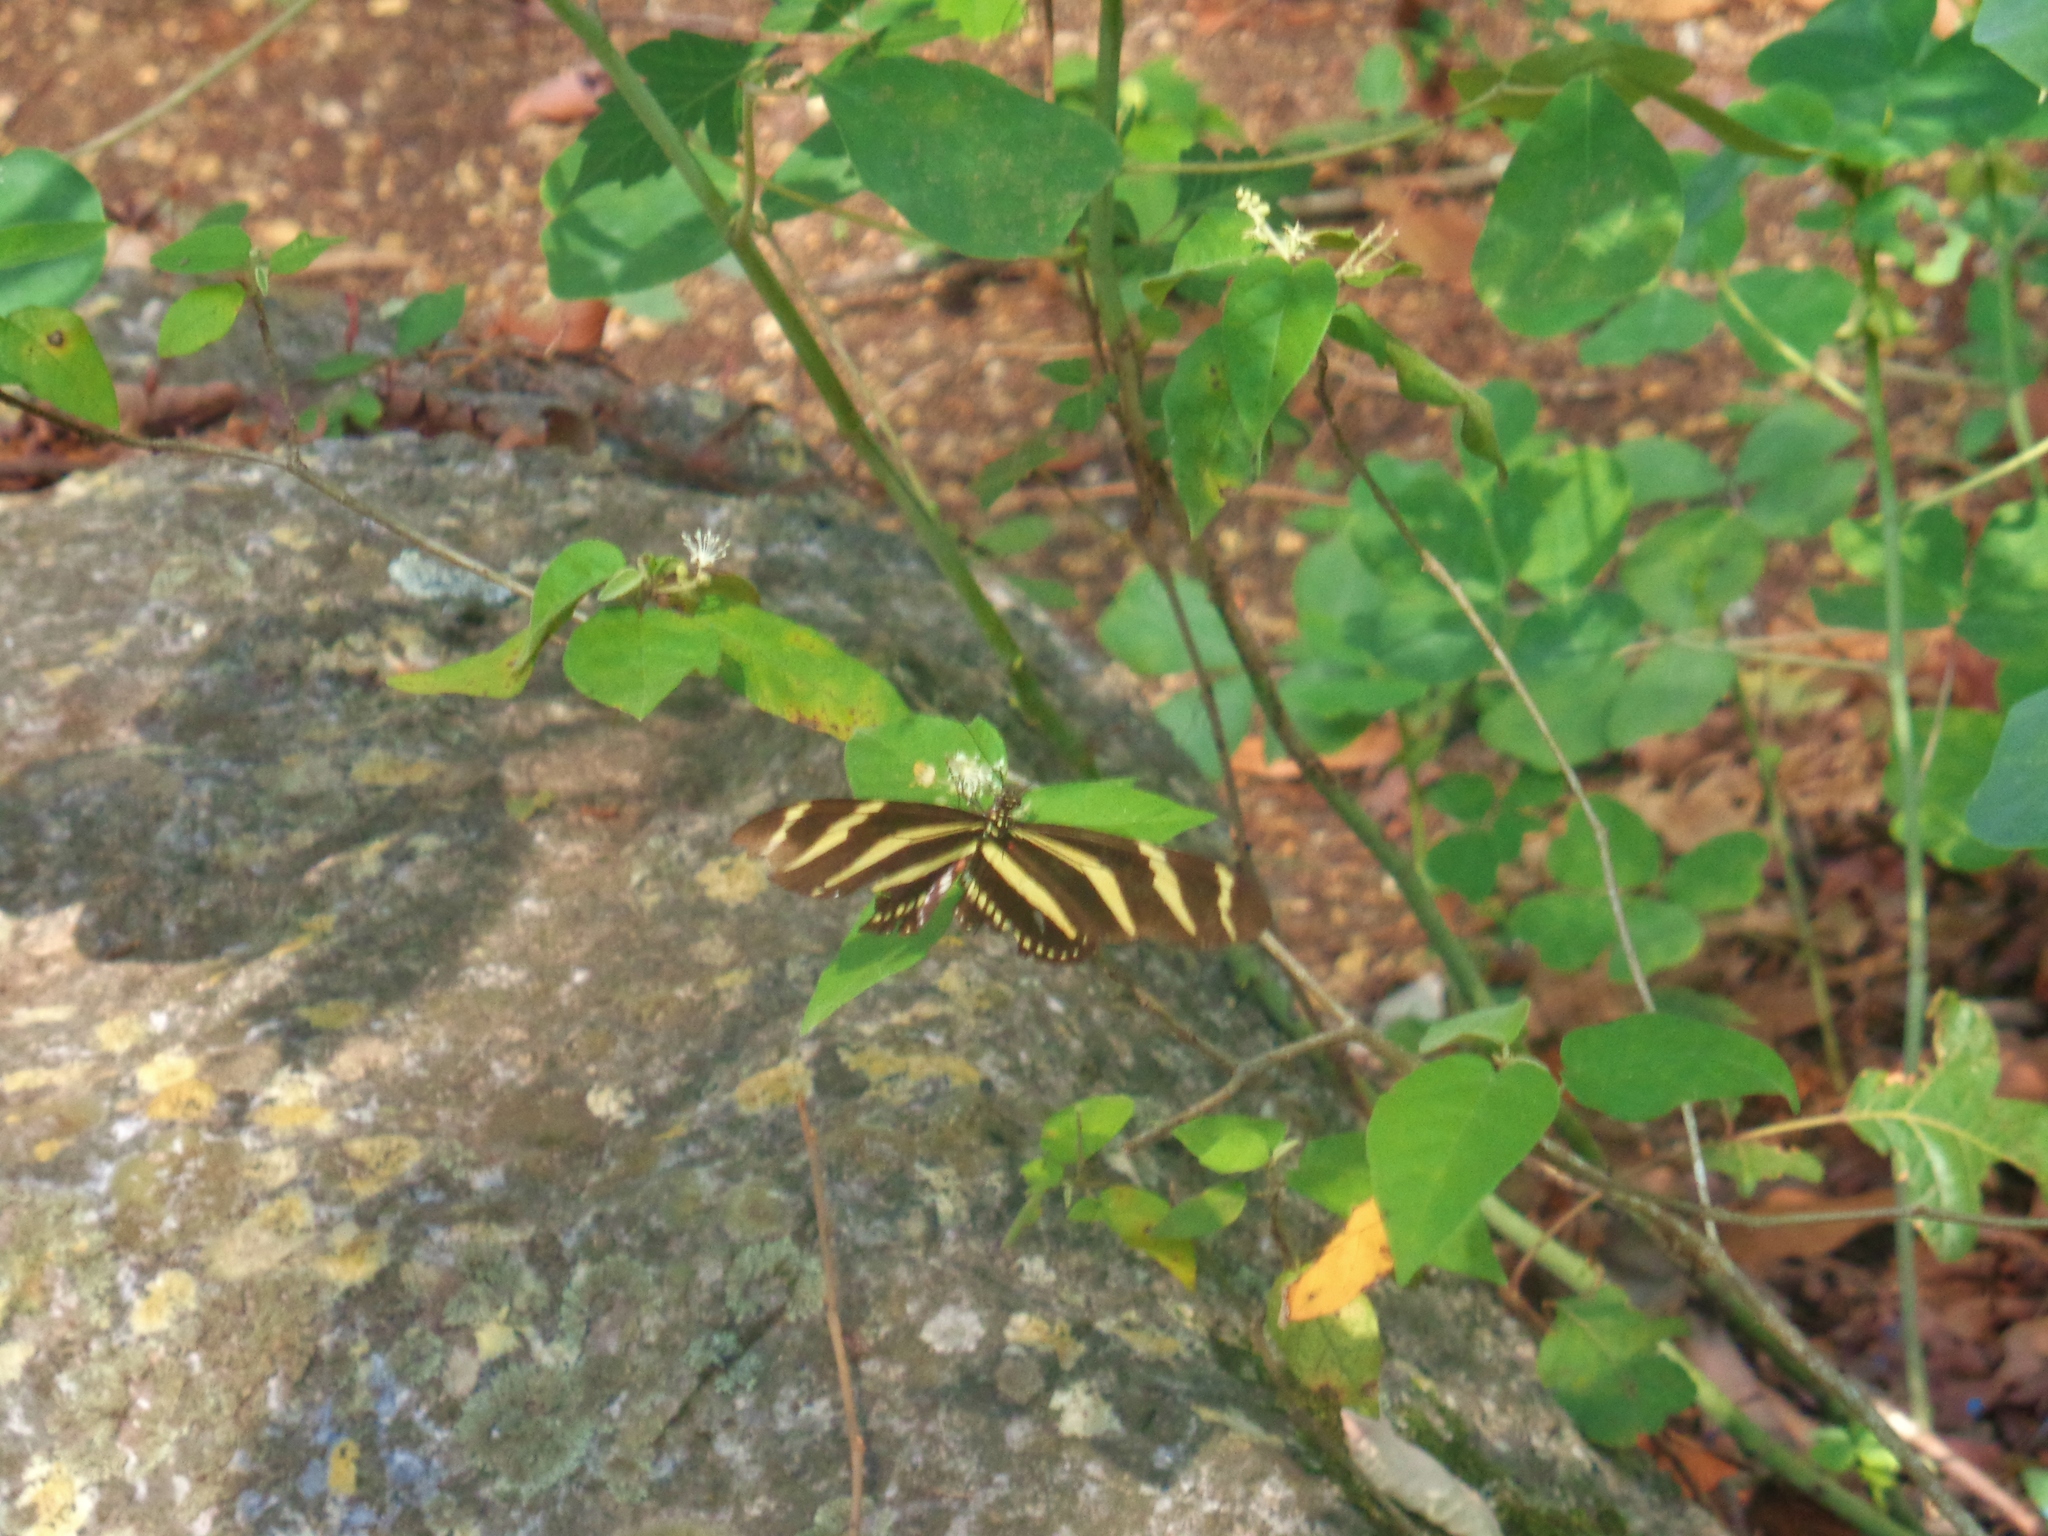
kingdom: Animalia
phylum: Arthropoda
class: Insecta
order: Lepidoptera
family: Nymphalidae
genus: Heliconius
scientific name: Heliconius charithonia
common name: Zebra long wing
